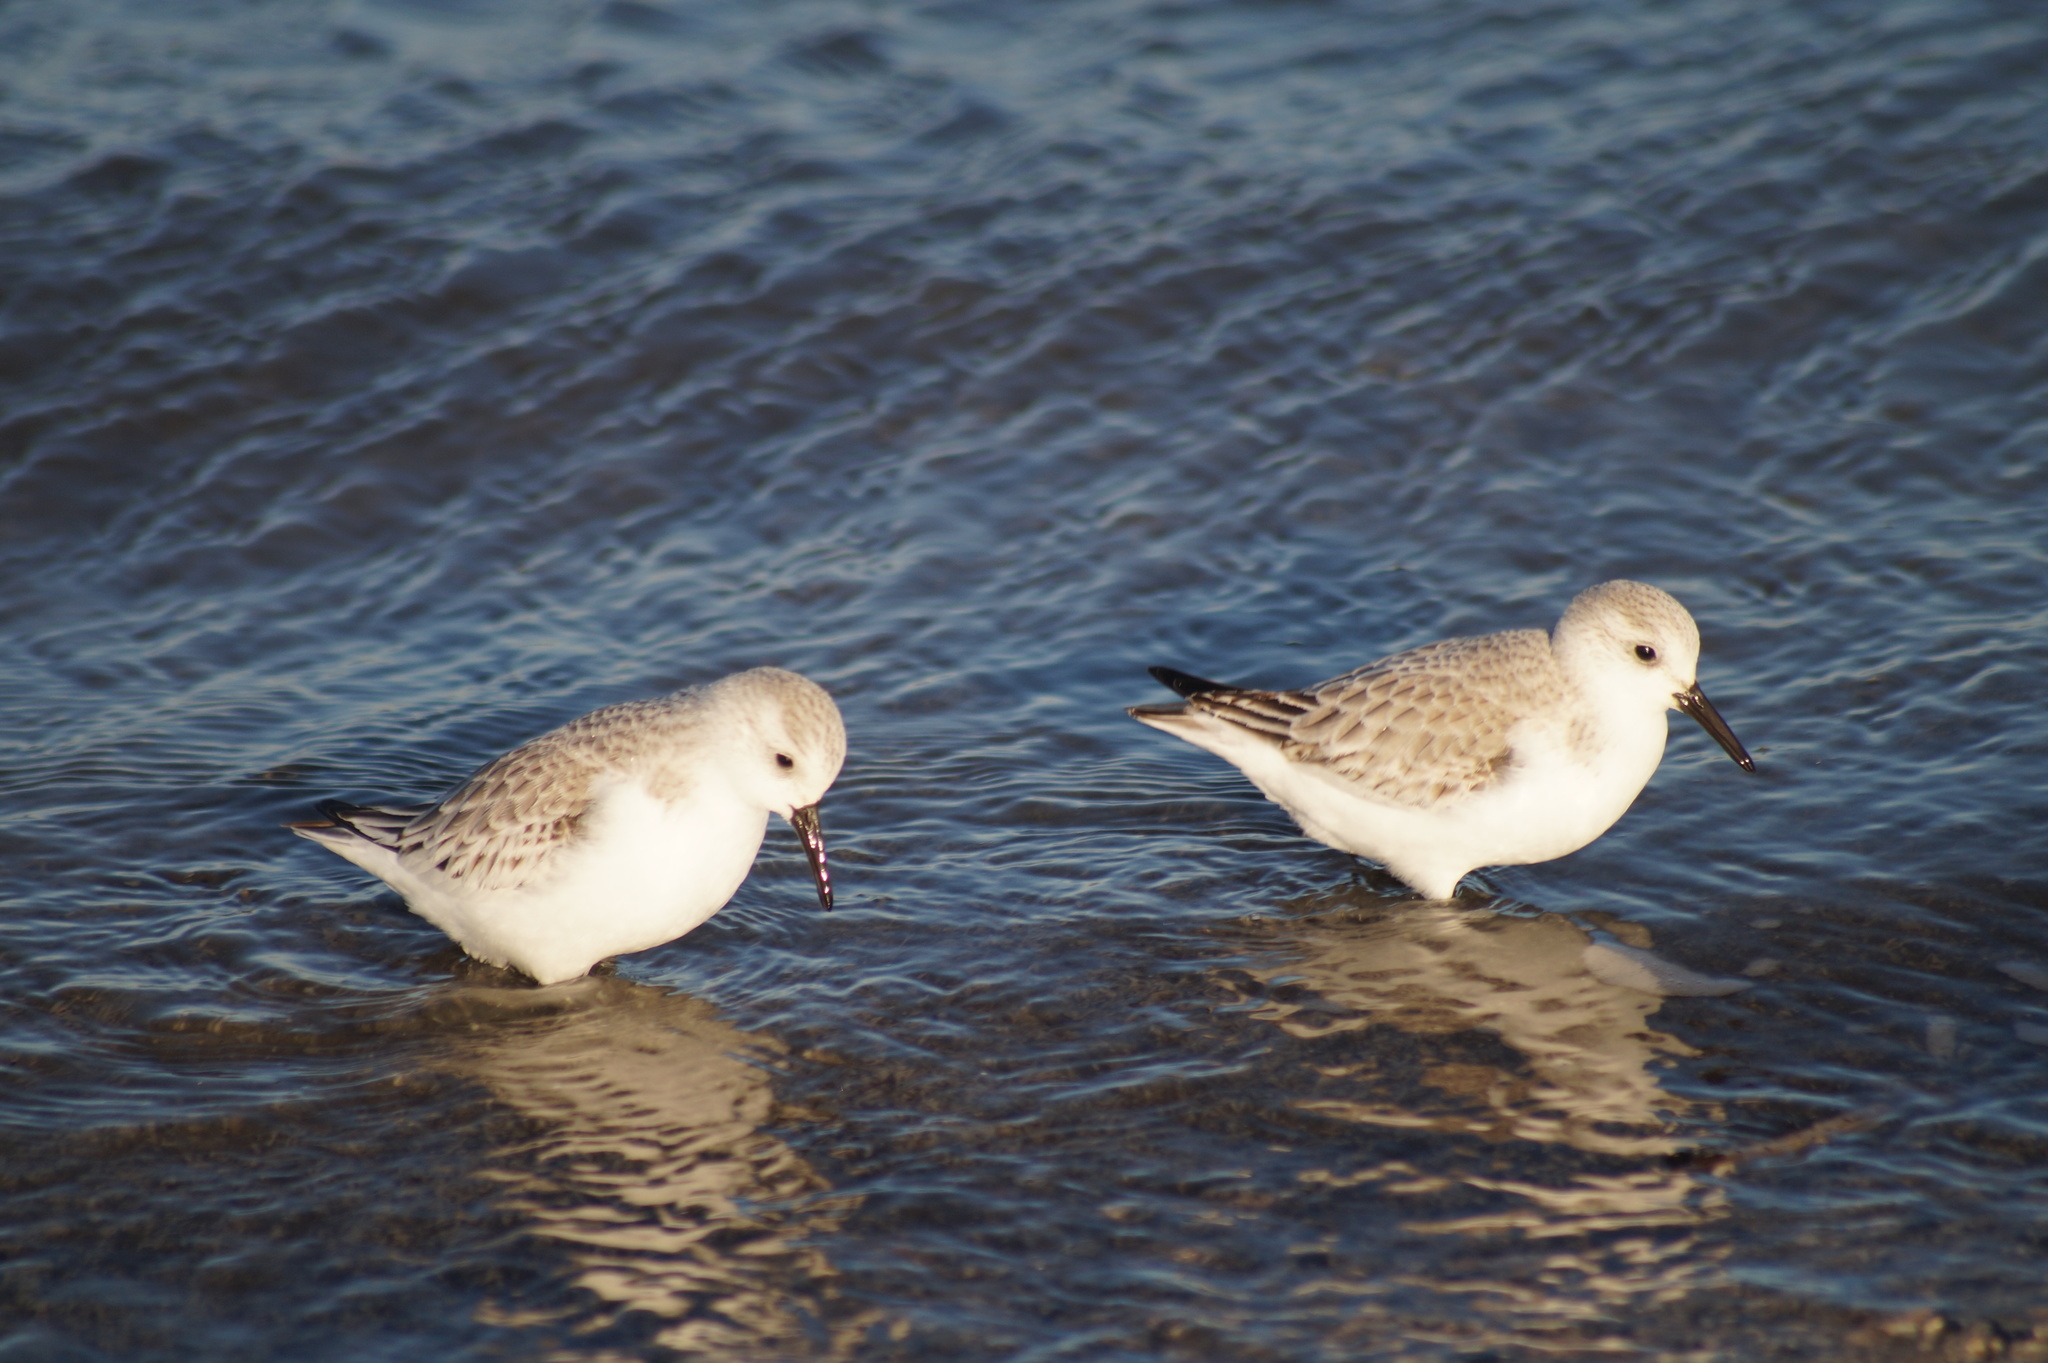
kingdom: Animalia
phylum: Chordata
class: Aves
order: Charadriiformes
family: Scolopacidae
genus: Calidris
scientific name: Calidris alba
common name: Sanderling
